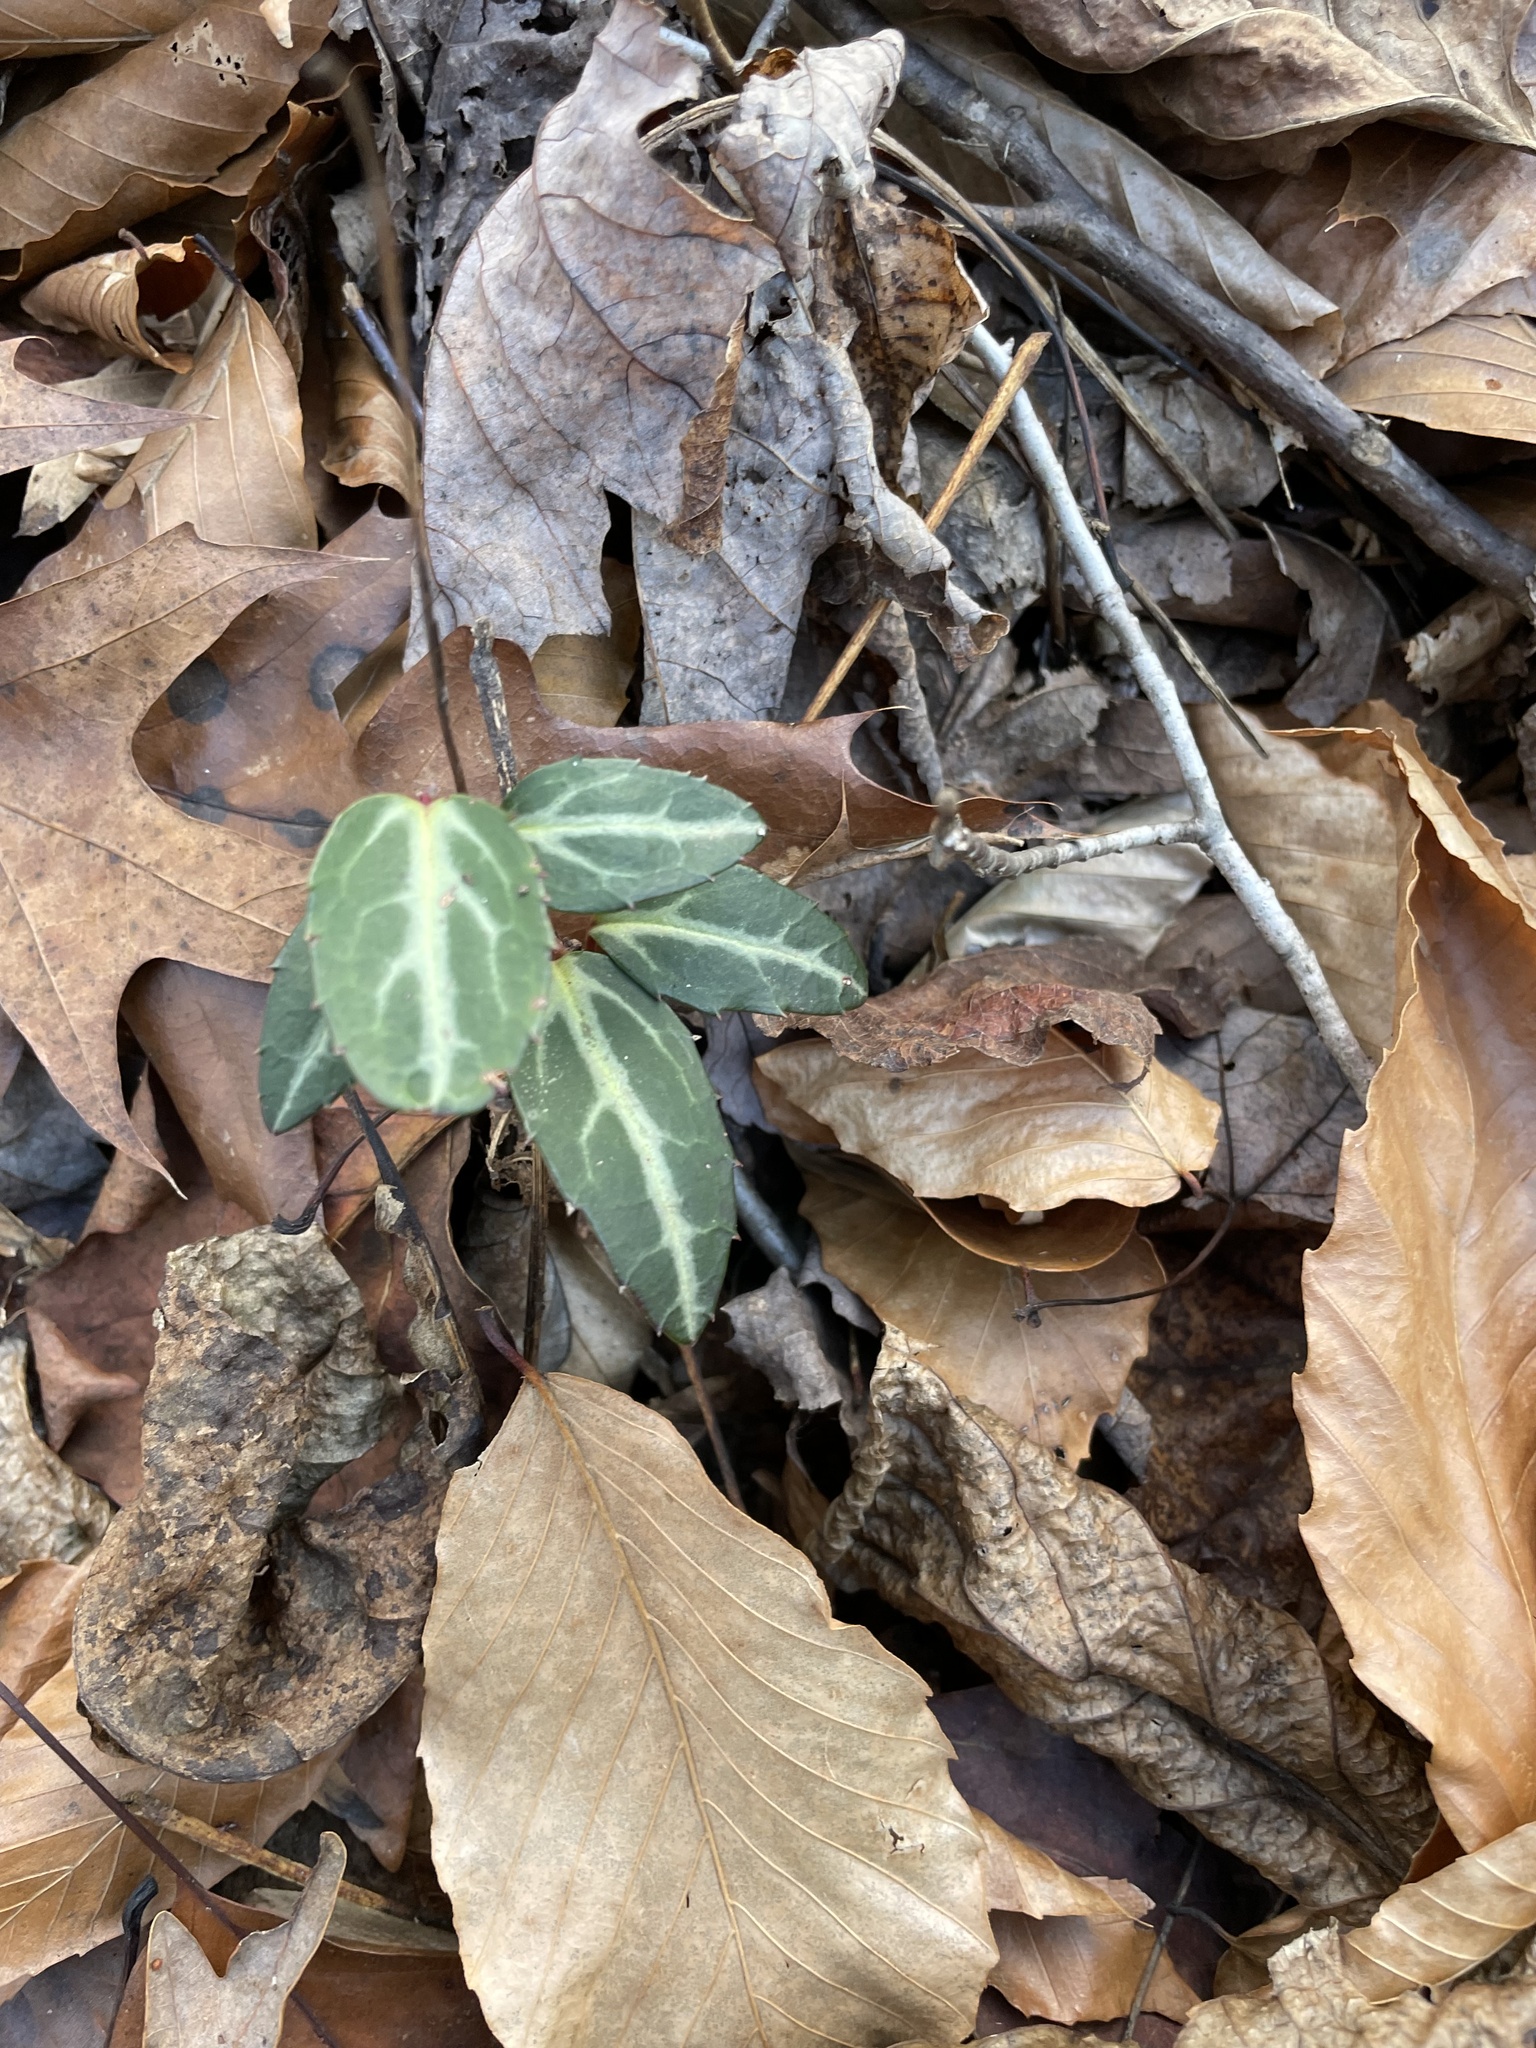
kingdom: Plantae
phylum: Tracheophyta
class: Magnoliopsida
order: Ericales
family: Ericaceae
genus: Chimaphila
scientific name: Chimaphila maculata
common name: Spotted pipsissewa
